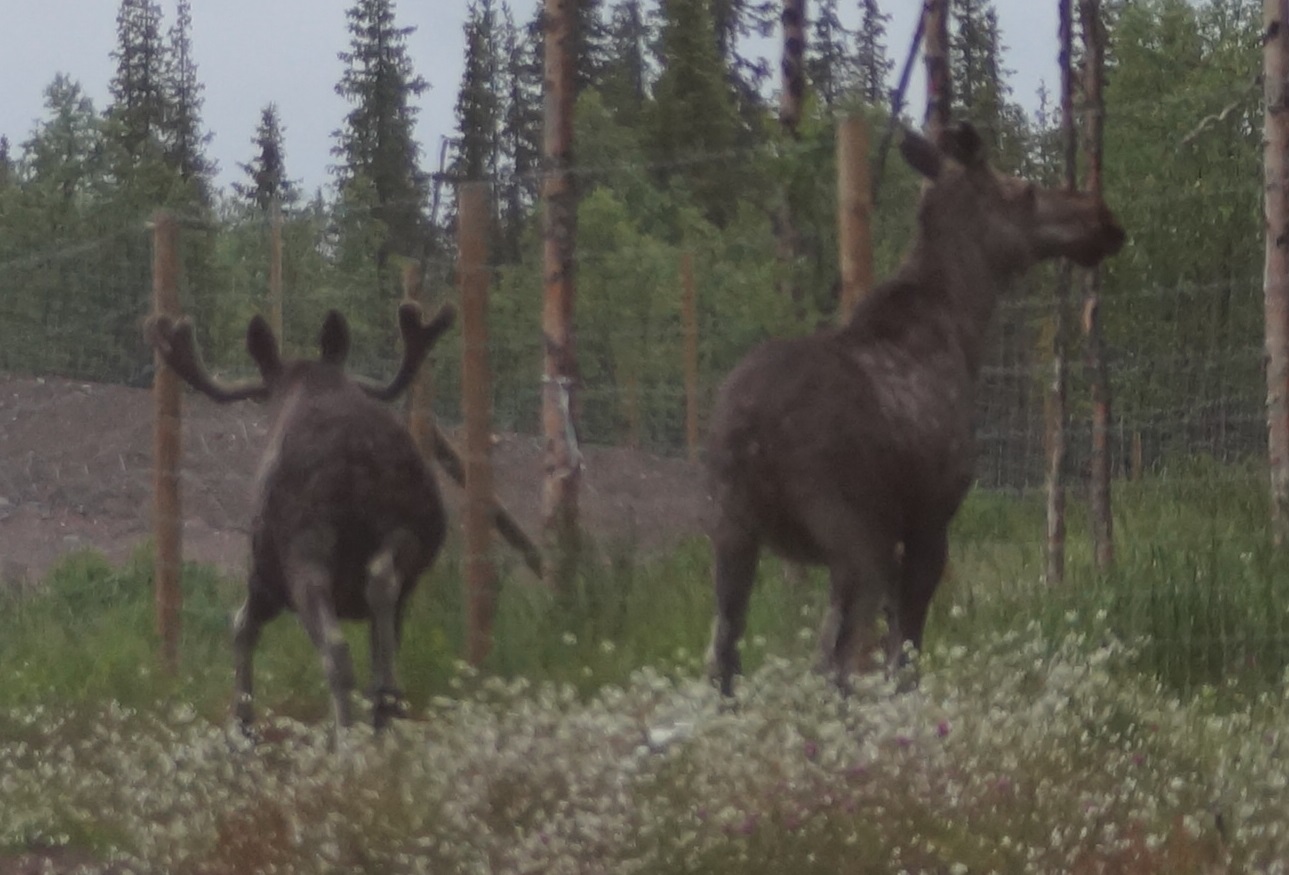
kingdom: Animalia
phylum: Chordata
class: Mammalia
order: Artiodactyla
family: Cervidae
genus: Alces
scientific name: Alces alces
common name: Moose
